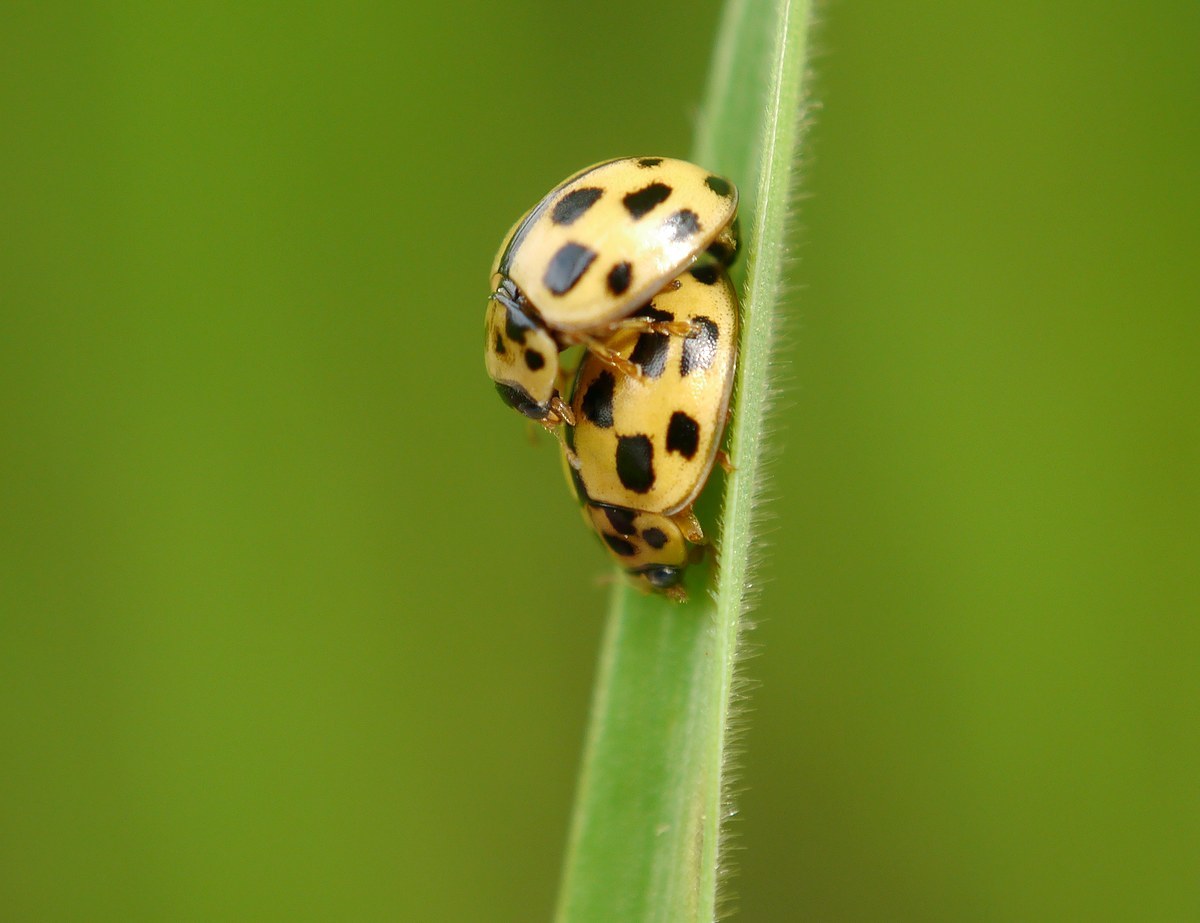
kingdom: Animalia
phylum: Arthropoda
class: Insecta
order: Coleoptera
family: Coccinellidae
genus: Propylaea
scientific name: Propylaea quatuordecimpunctata
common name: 14-spotted ladybird beetle
